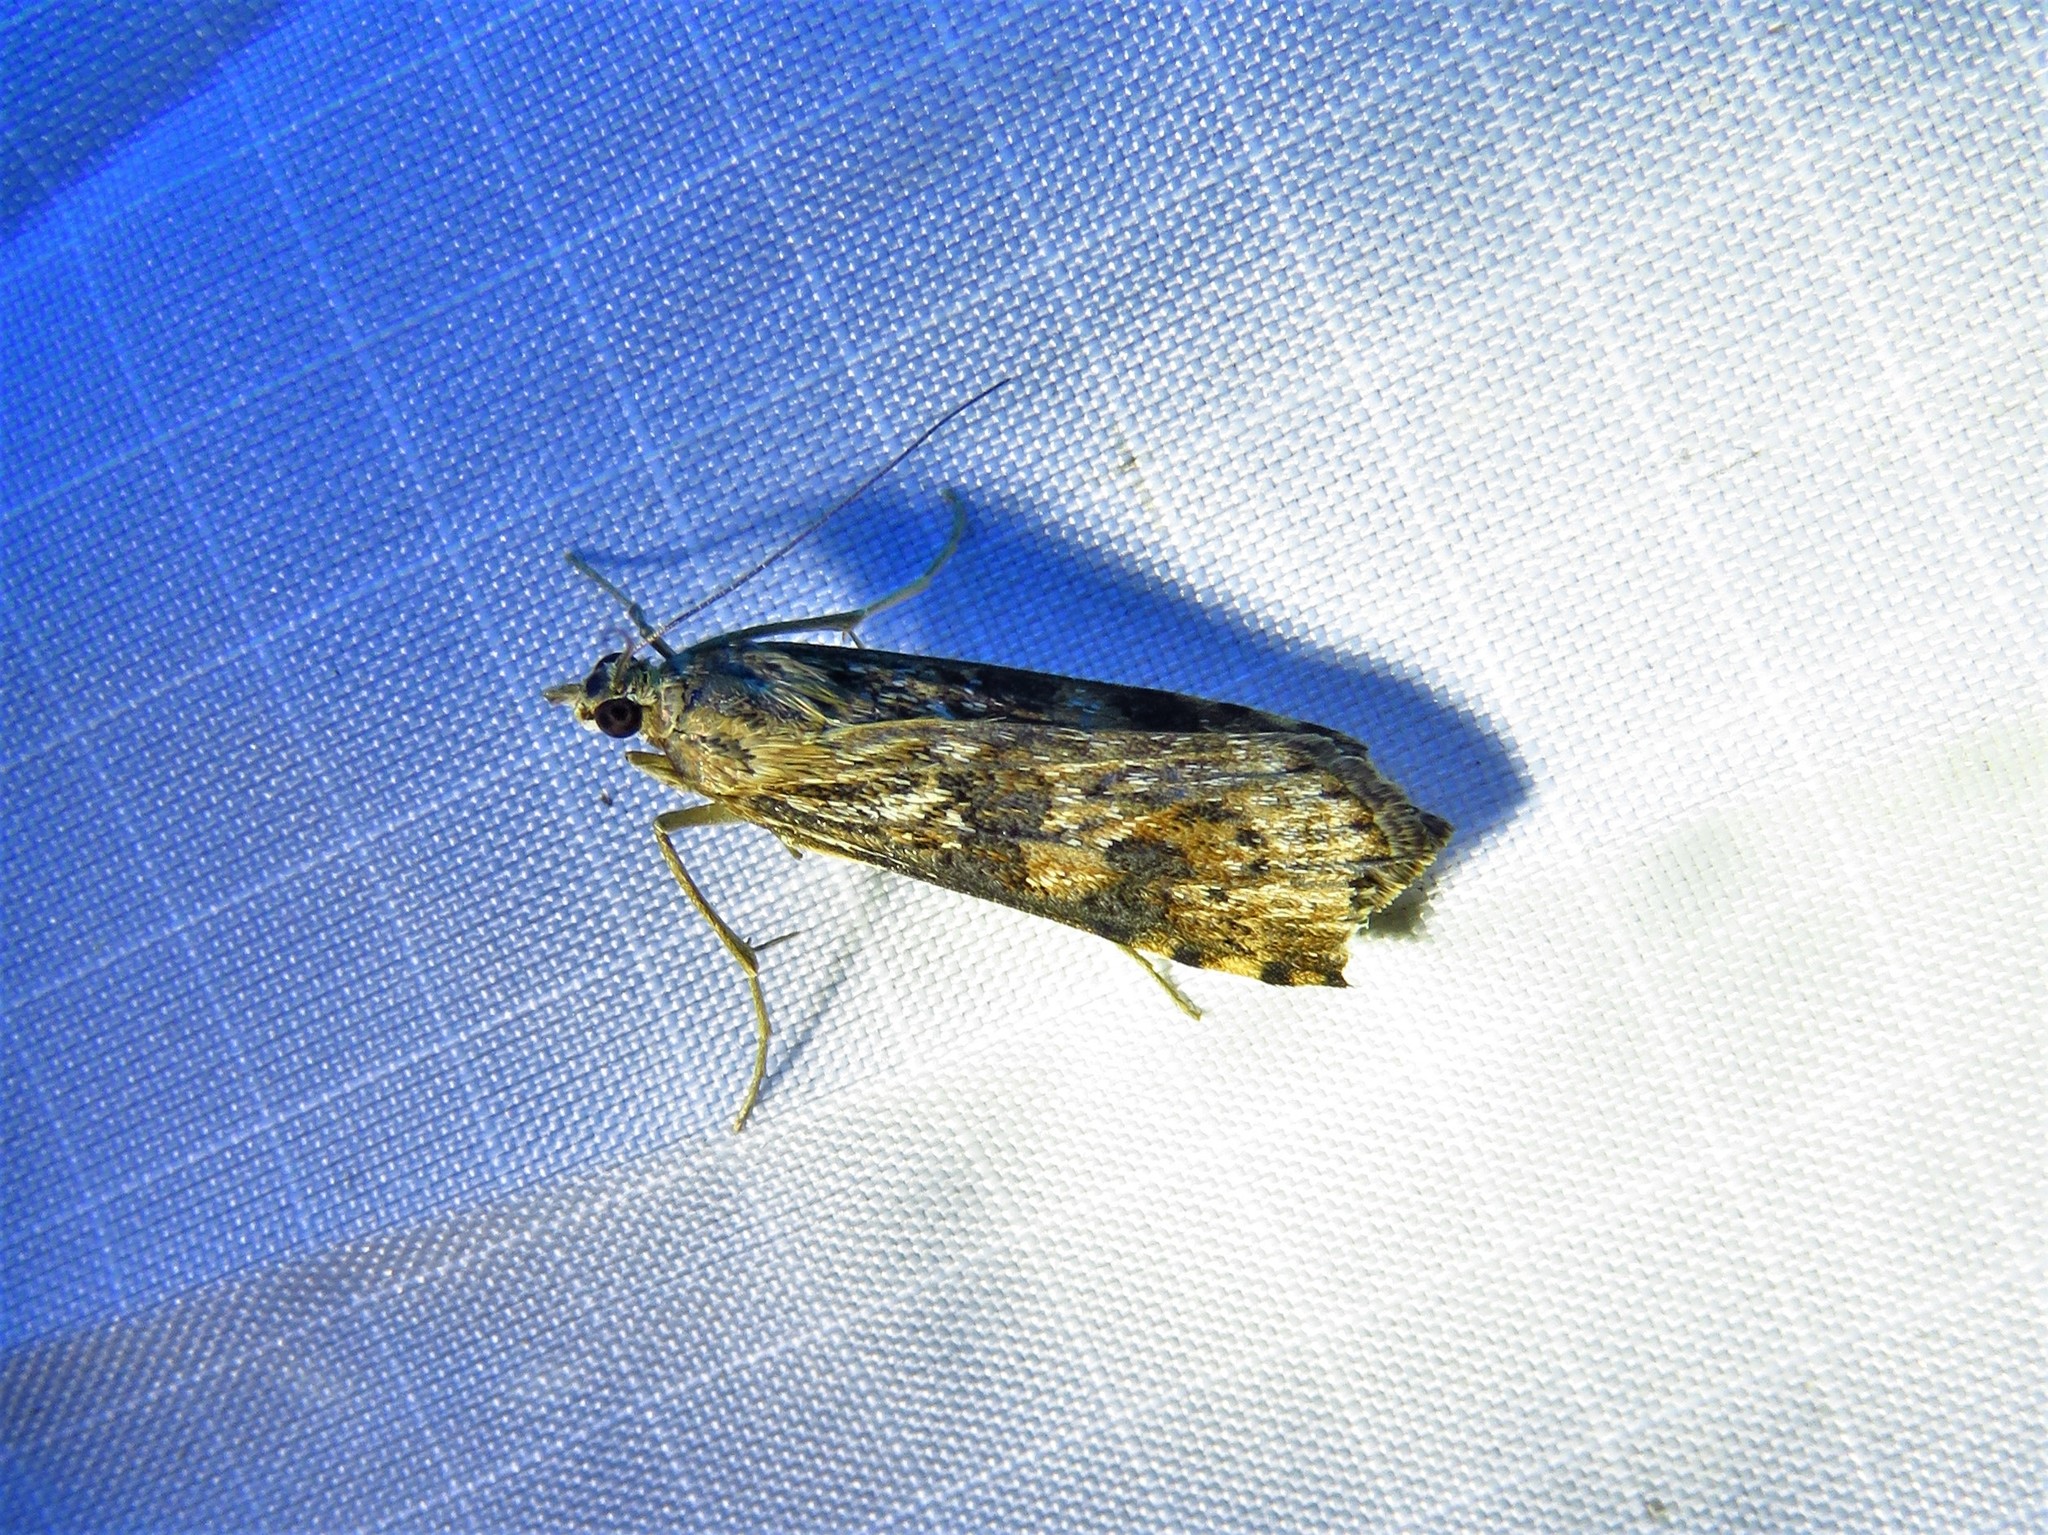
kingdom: Animalia
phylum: Arthropoda
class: Insecta
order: Lepidoptera
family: Crambidae
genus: Nomophila
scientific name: Nomophila nearctica
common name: American rush veneer
